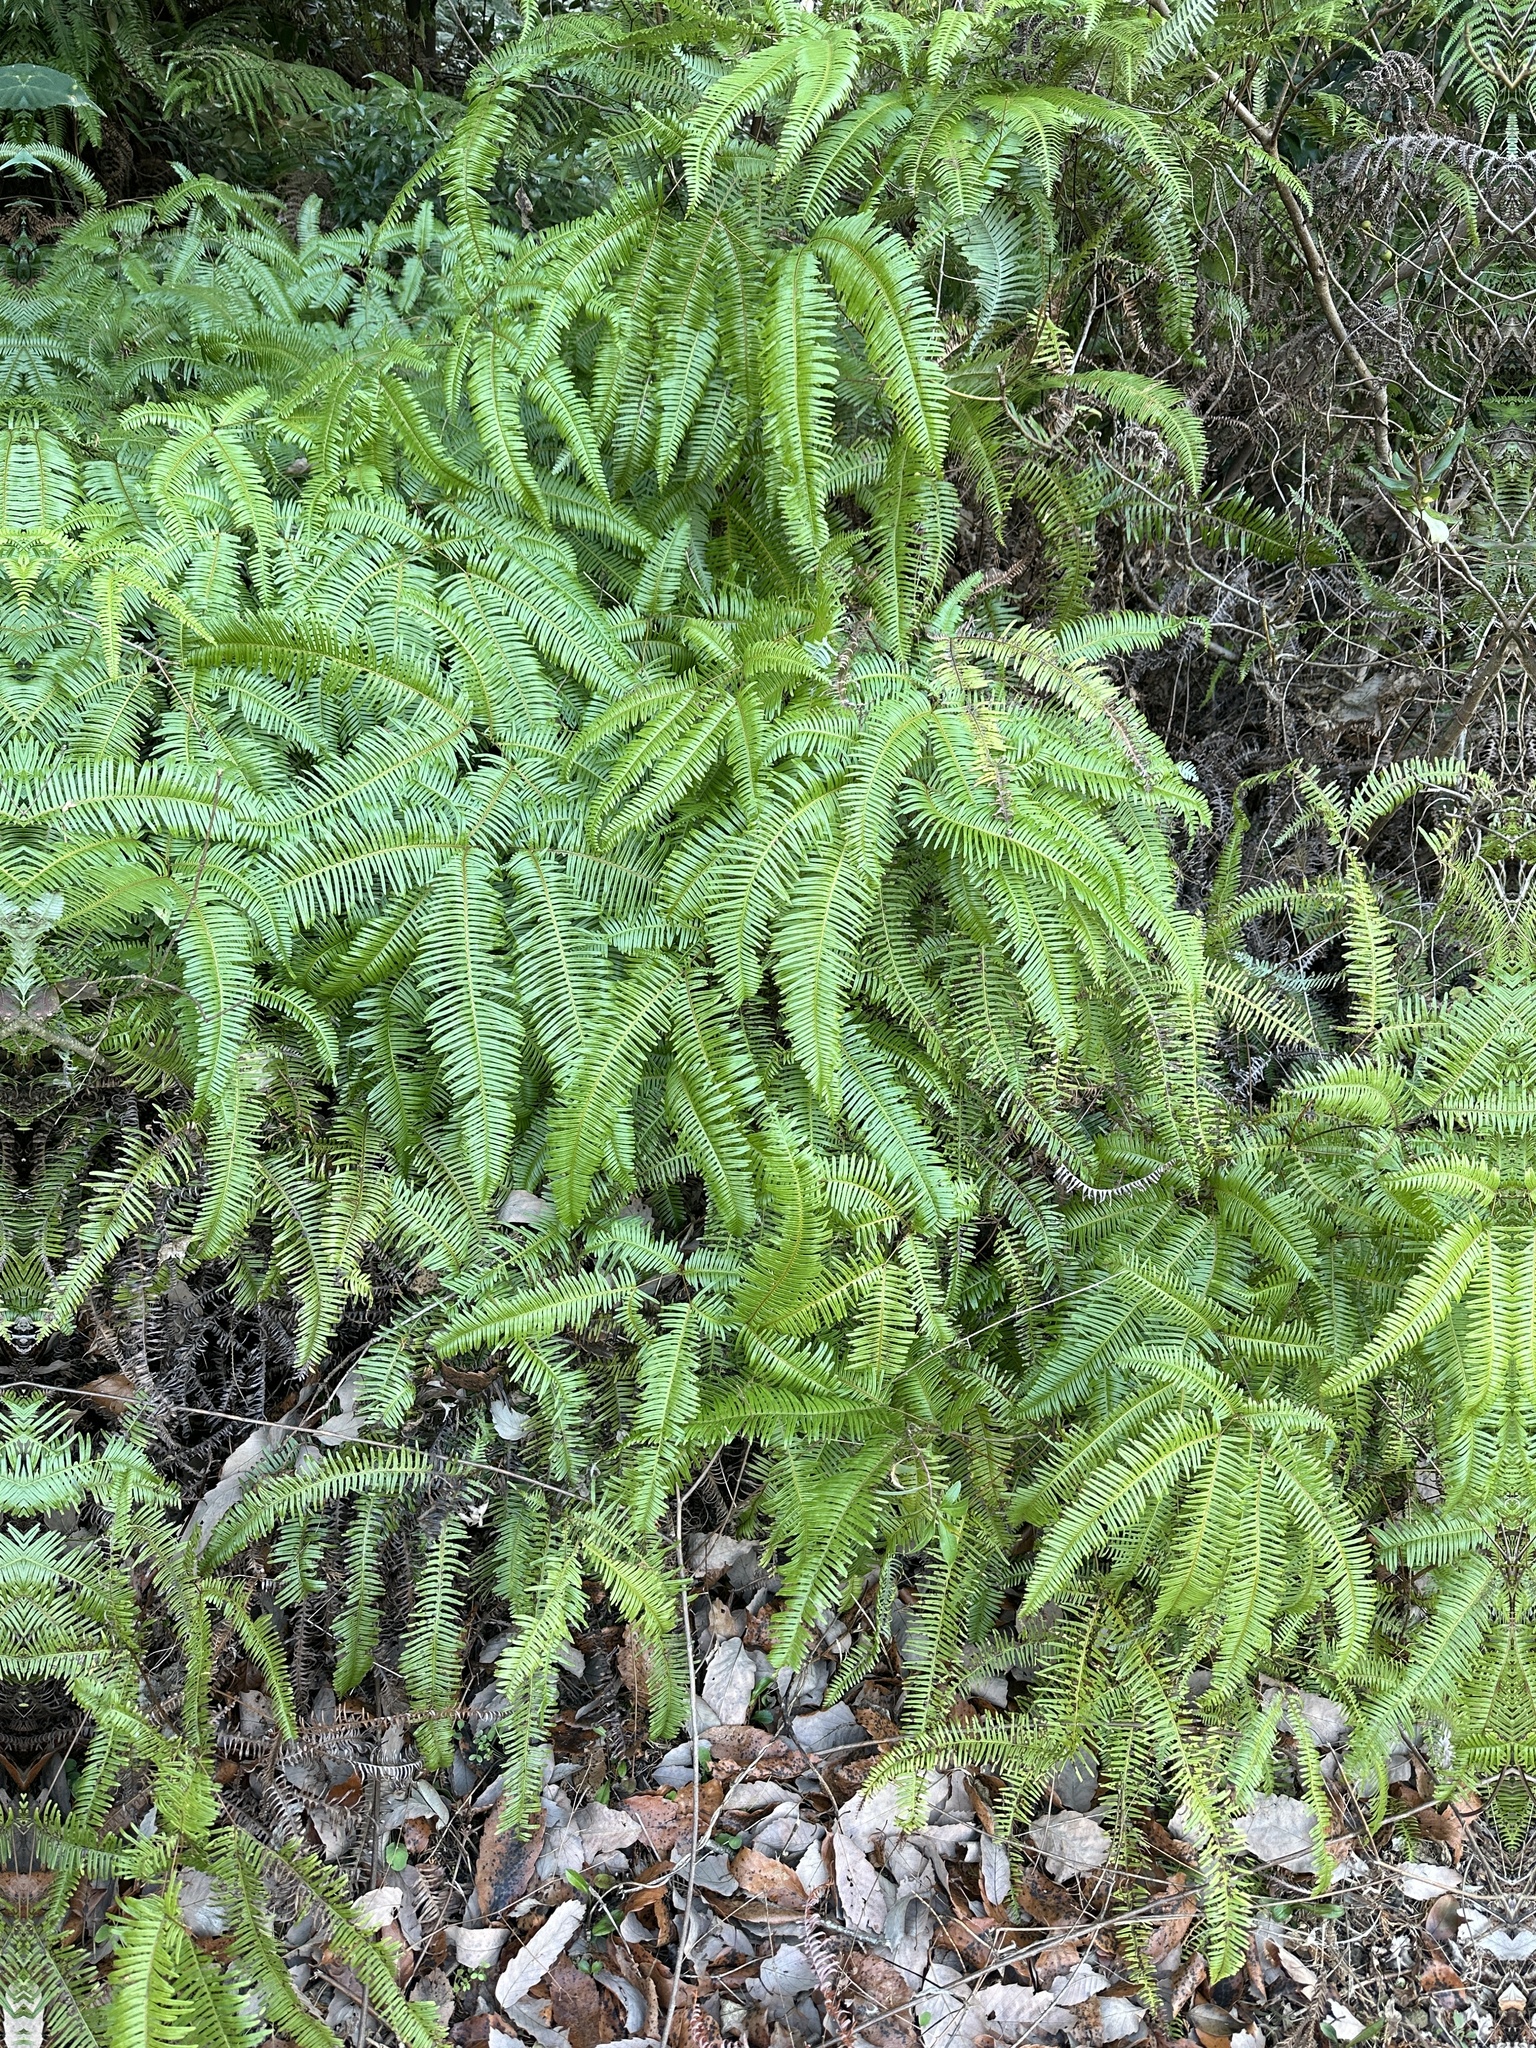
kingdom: Plantae
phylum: Tracheophyta
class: Polypodiopsida
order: Gleicheniales
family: Gleicheniaceae
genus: Dicranopteris
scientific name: Dicranopteris linearis
